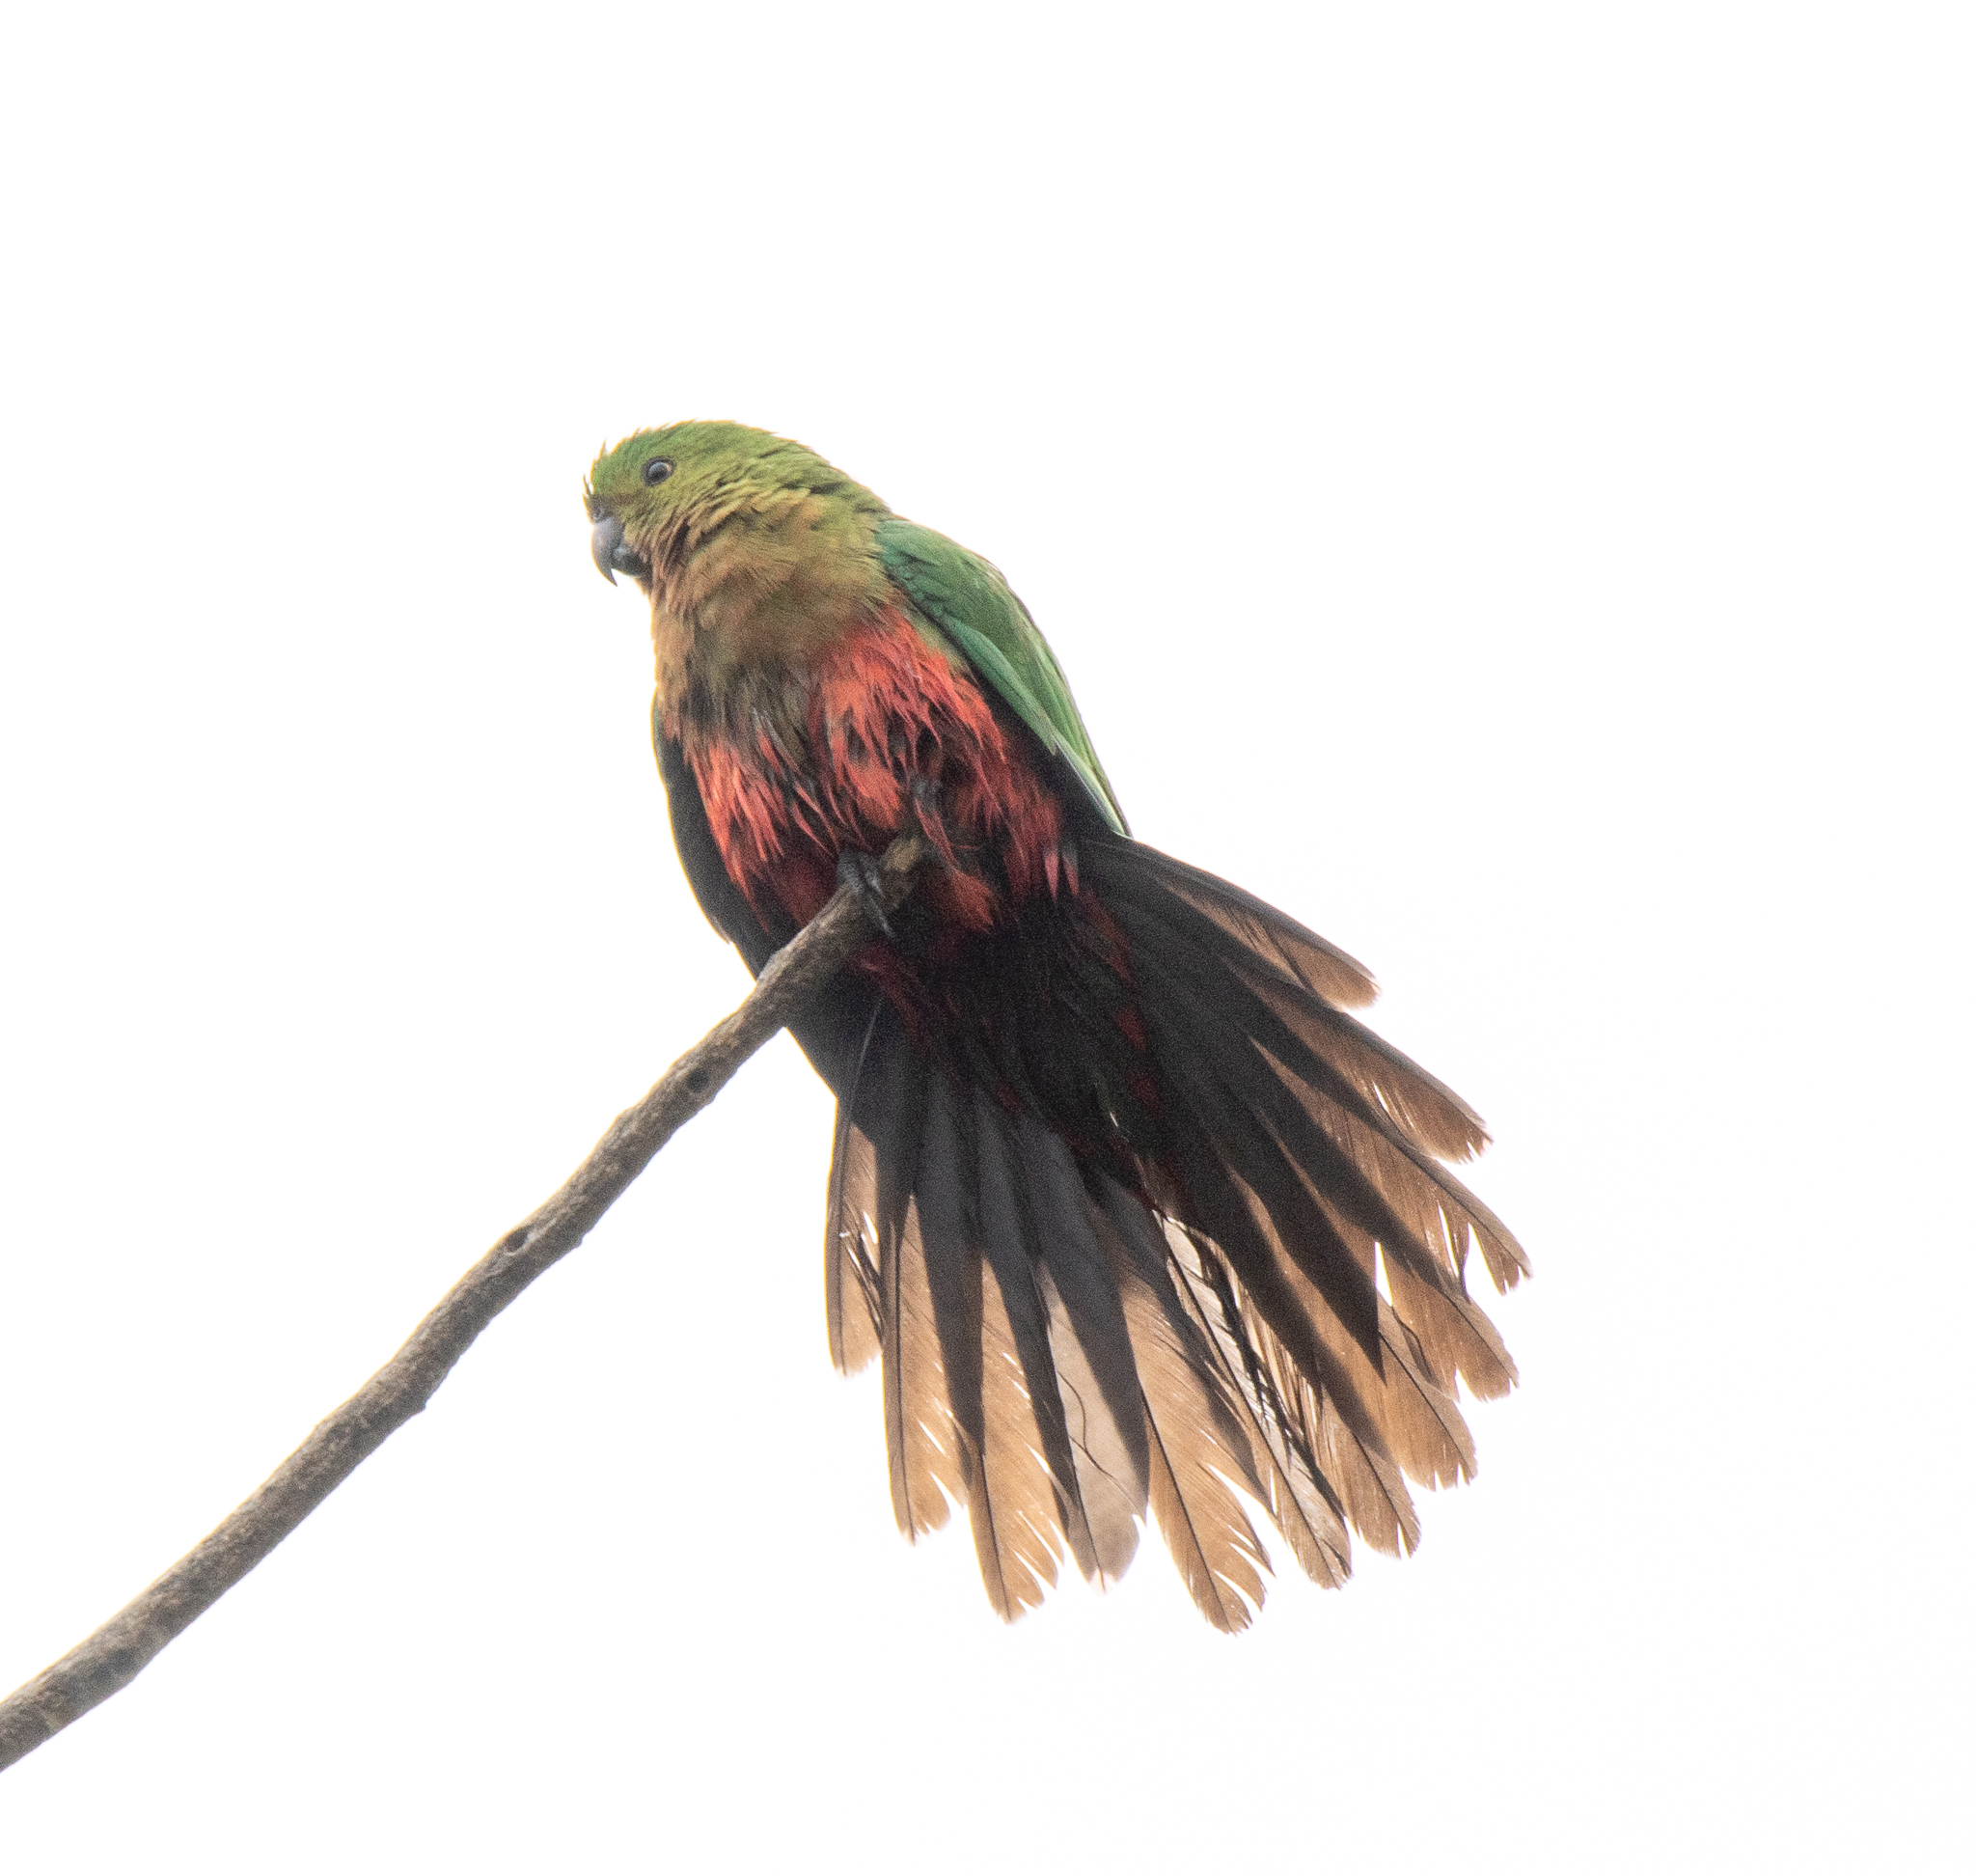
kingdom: Animalia
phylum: Chordata
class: Aves
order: Psittaciformes
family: Psittacidae
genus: Alisterus
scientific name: Alisterus scapularis
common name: Australian king parrot
